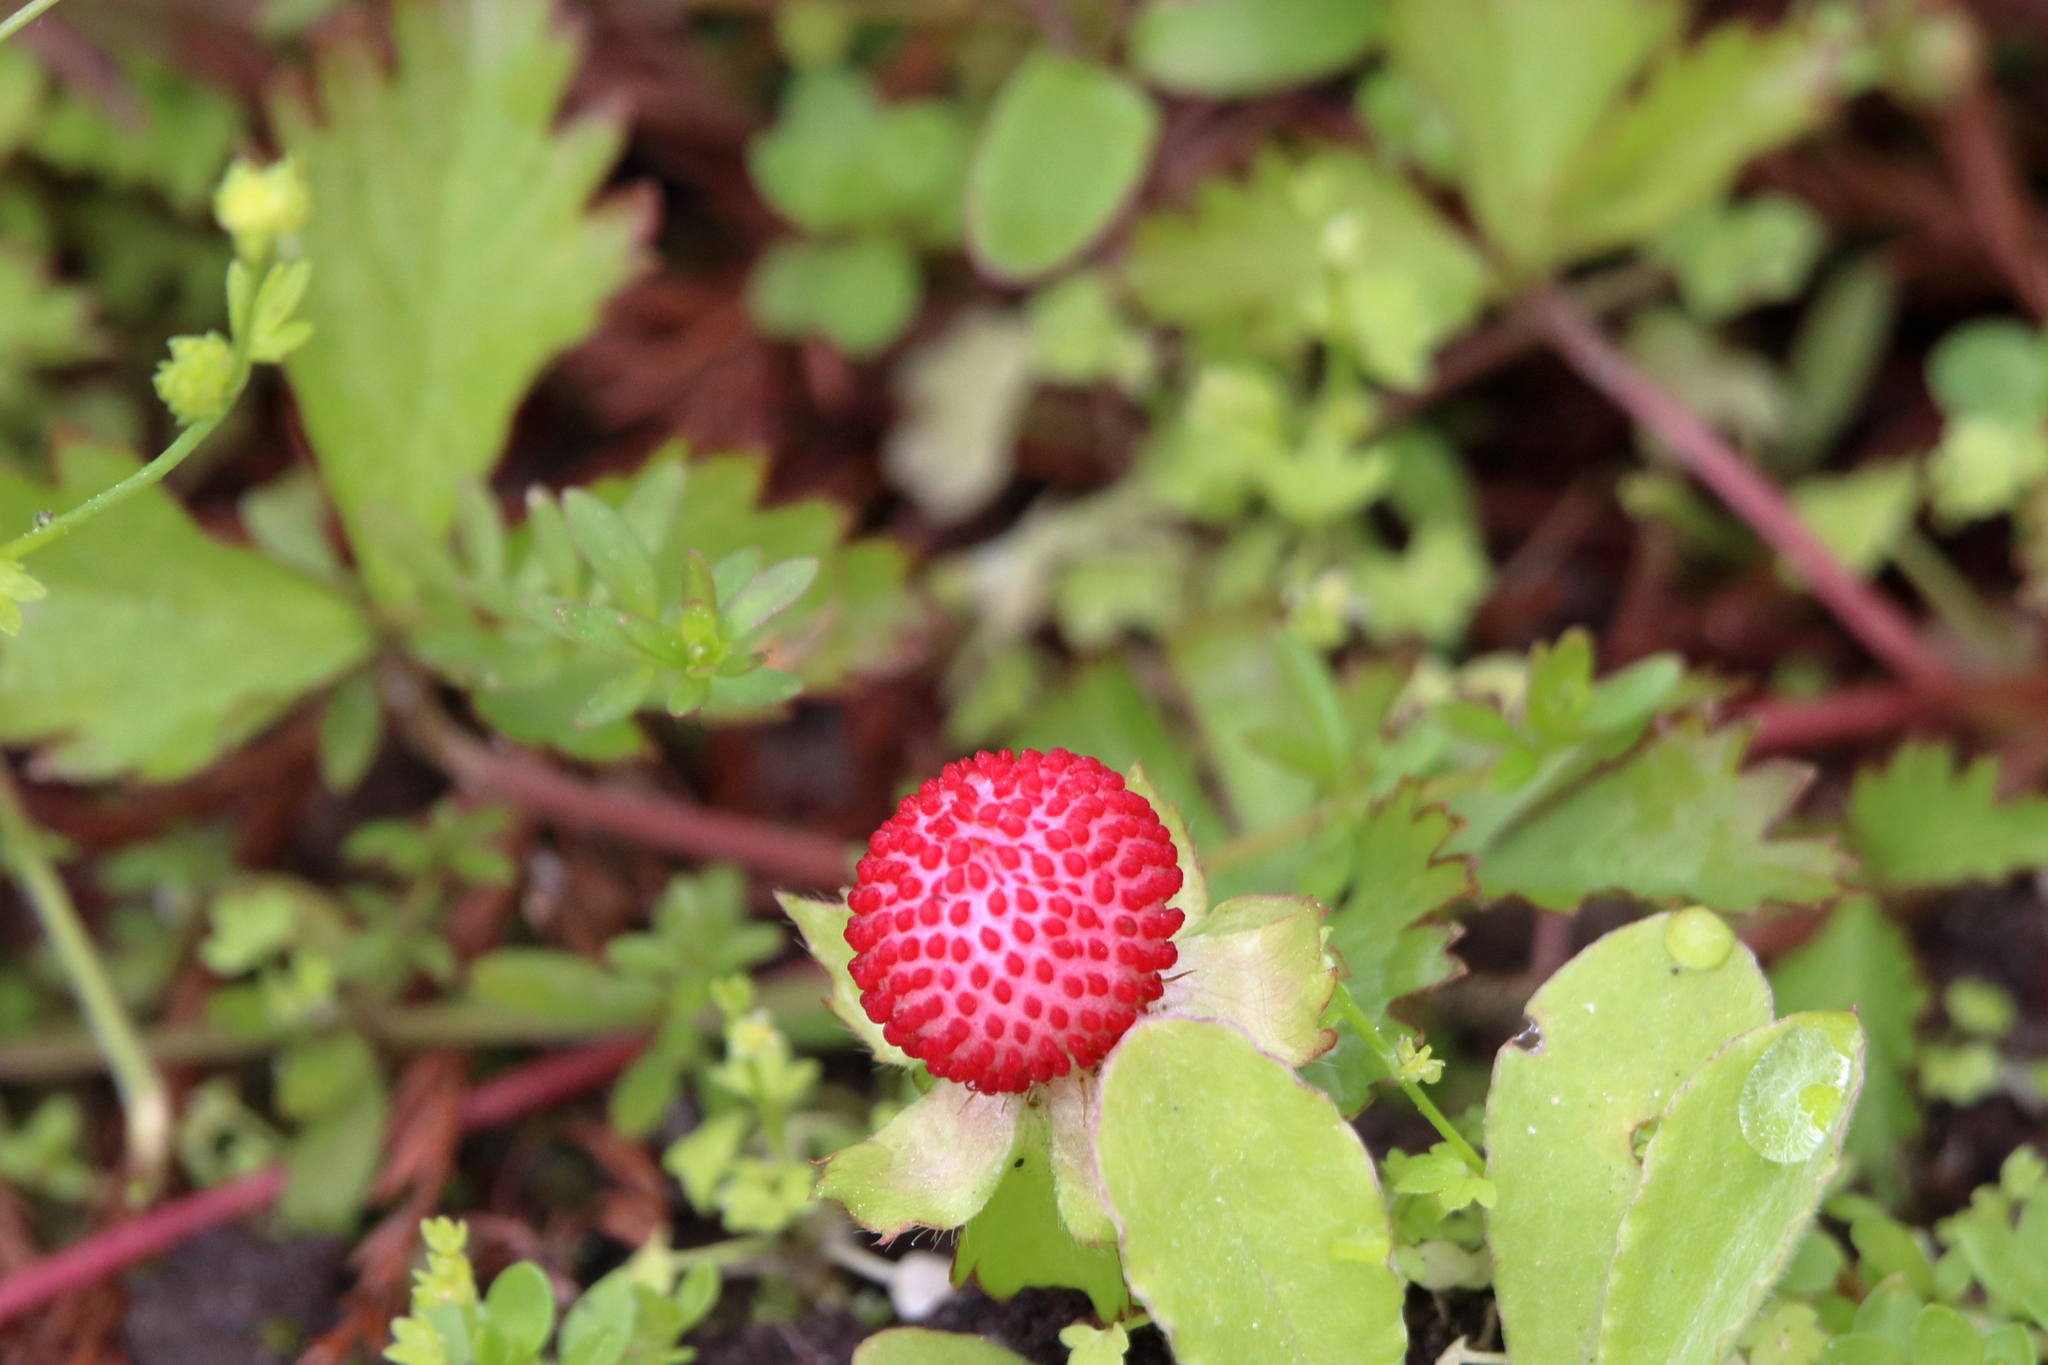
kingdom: Plantae
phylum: Tracheophyta
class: Magnoliopsida
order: Rosales
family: Rosaceae
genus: Potentilla
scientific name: Potentilla indica
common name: Yellow-flowered strawberry
